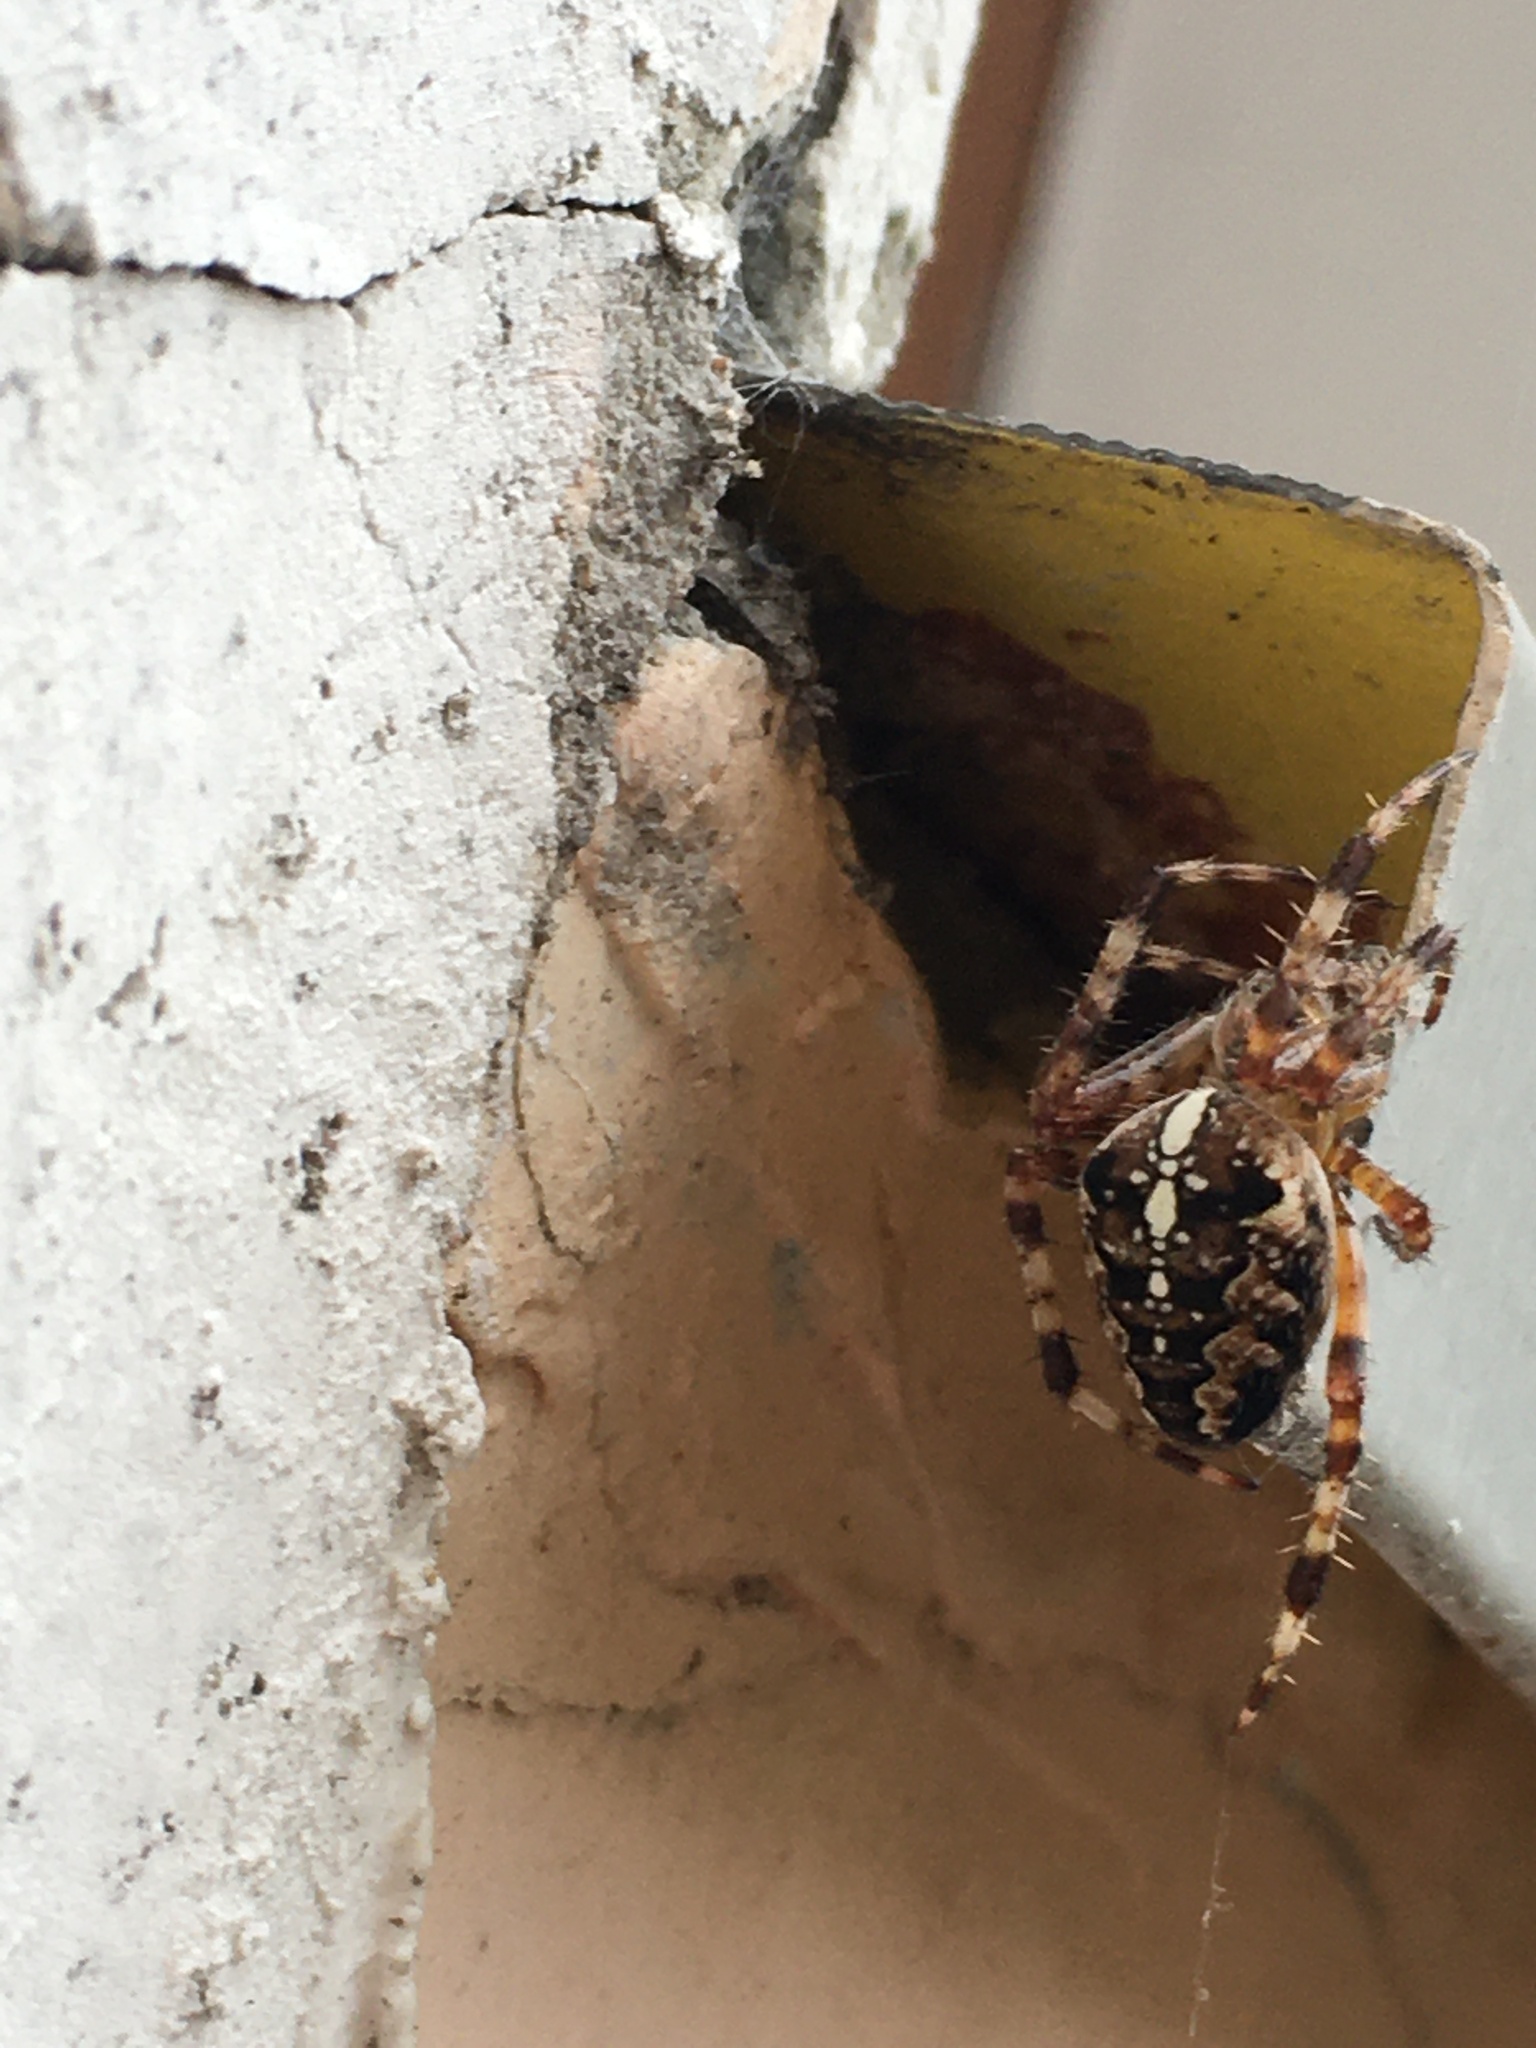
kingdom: Animalia
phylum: Arthropoda
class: Arachnida
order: Araneae
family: Araneidae
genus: Araneus
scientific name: Araneus diadematus
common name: Cross orbweaver
